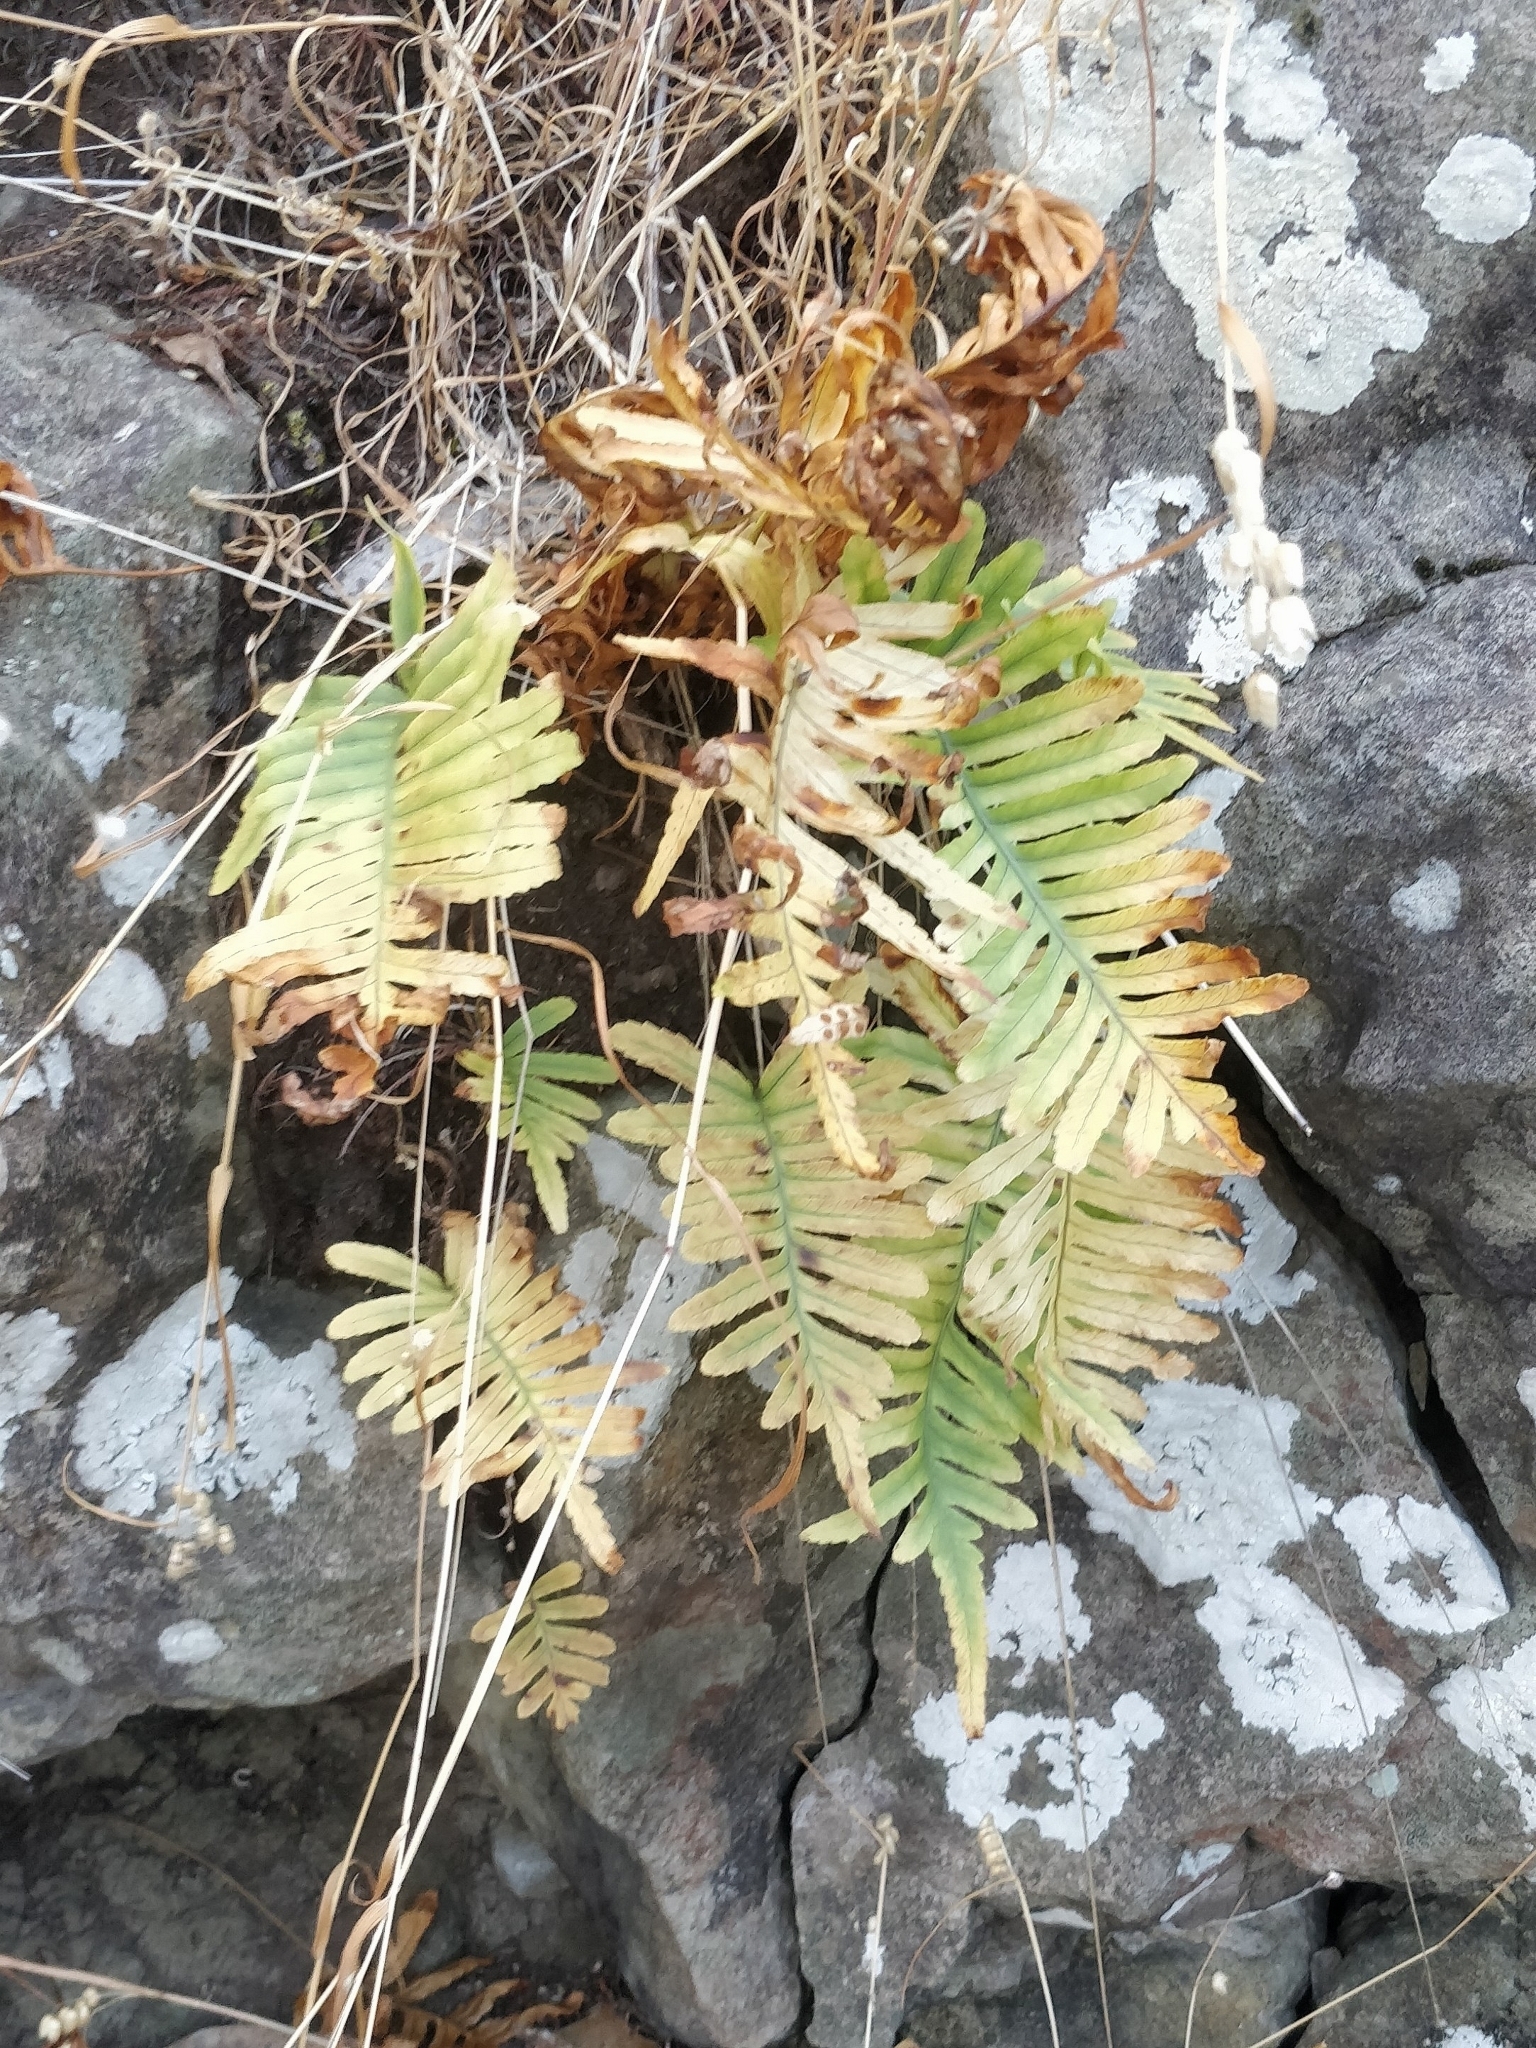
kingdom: Plantae
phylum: Tracheophyta
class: Polypodiopsida
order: Polypodiales
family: Polypodiaceae
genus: Polypodium
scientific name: Polypodium macaronesicum
